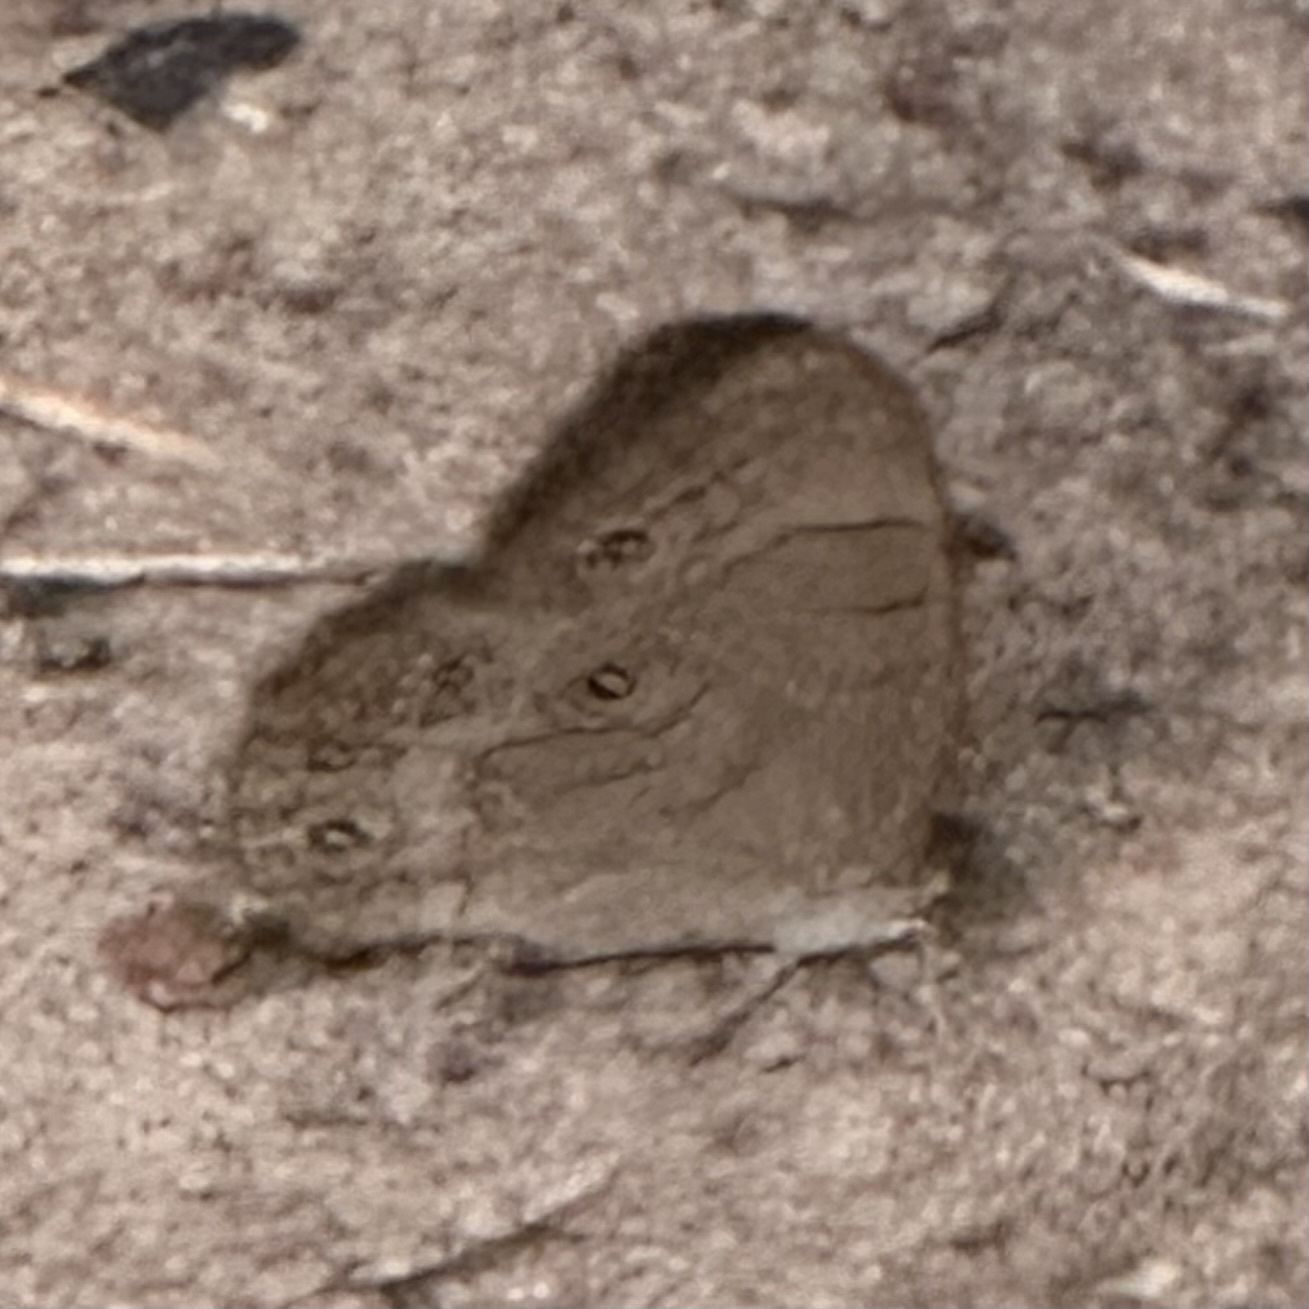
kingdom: Animalia
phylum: Arthropoda
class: Insecta
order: Lepidoptera
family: Nymphalidae
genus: Lethe
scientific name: Lethe eurydice
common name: Eyed brown
